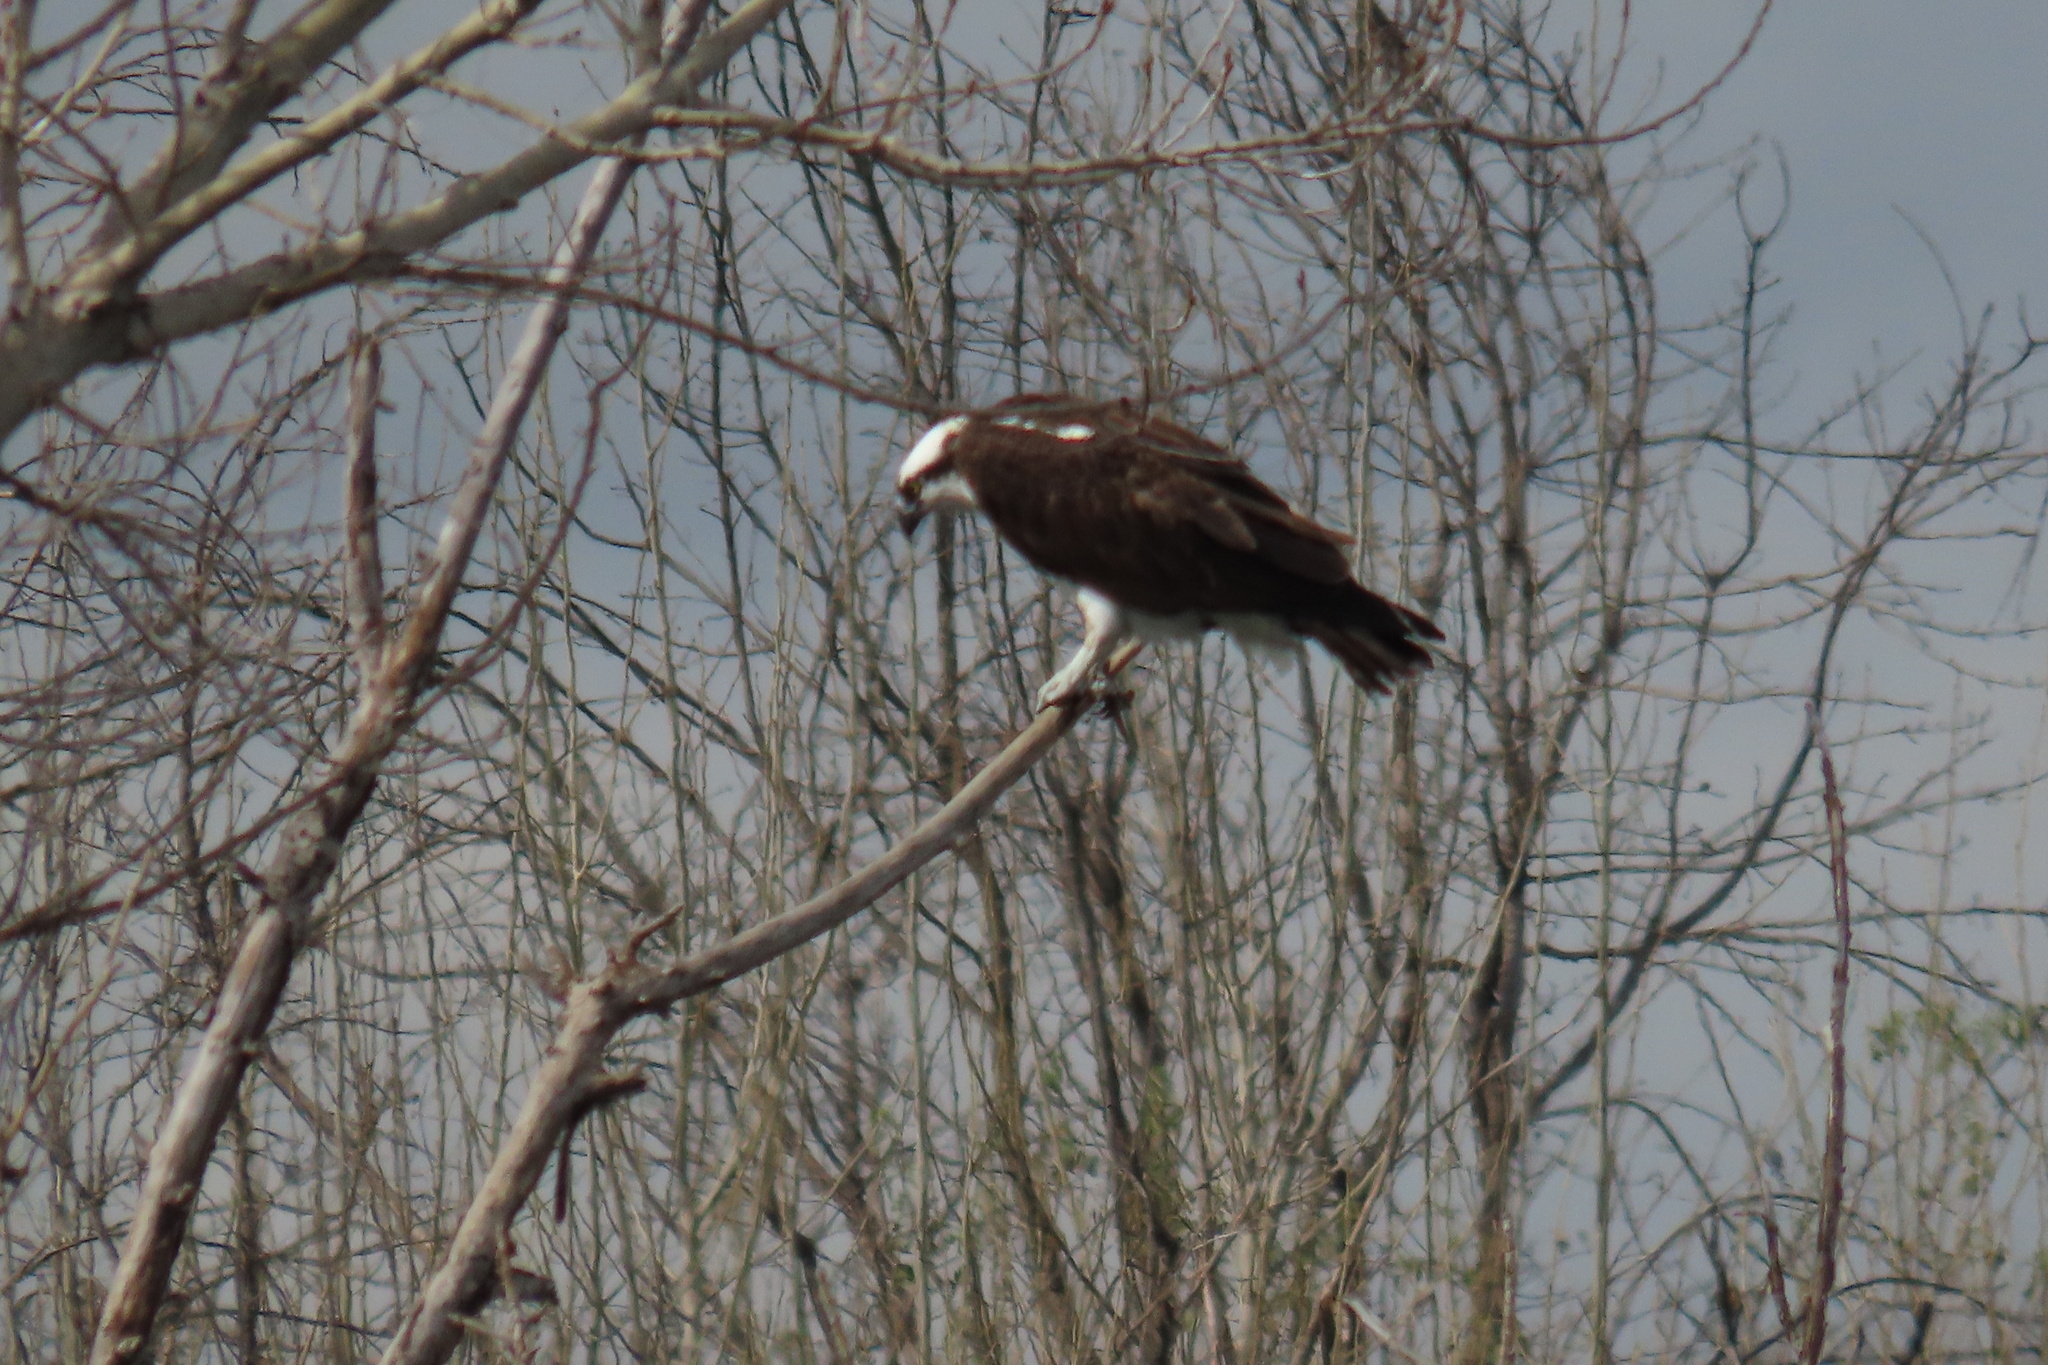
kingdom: Animalia
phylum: Chordata
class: Aves
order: Accipitriformes
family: Pandionidae
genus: Pandion
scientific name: Pandion haliaetus
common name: Osprey
